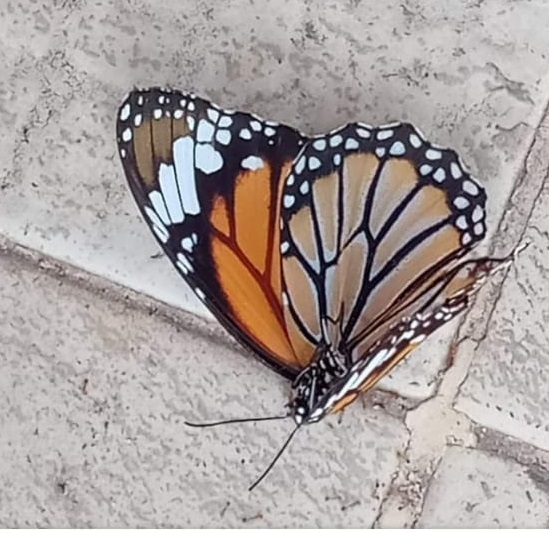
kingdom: Animalia
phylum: Arthropoda
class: Insecta
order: Lepidoptera
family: Nymphalidae
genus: Danaus
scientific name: Danaus genutia
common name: Common tiger butterfly
